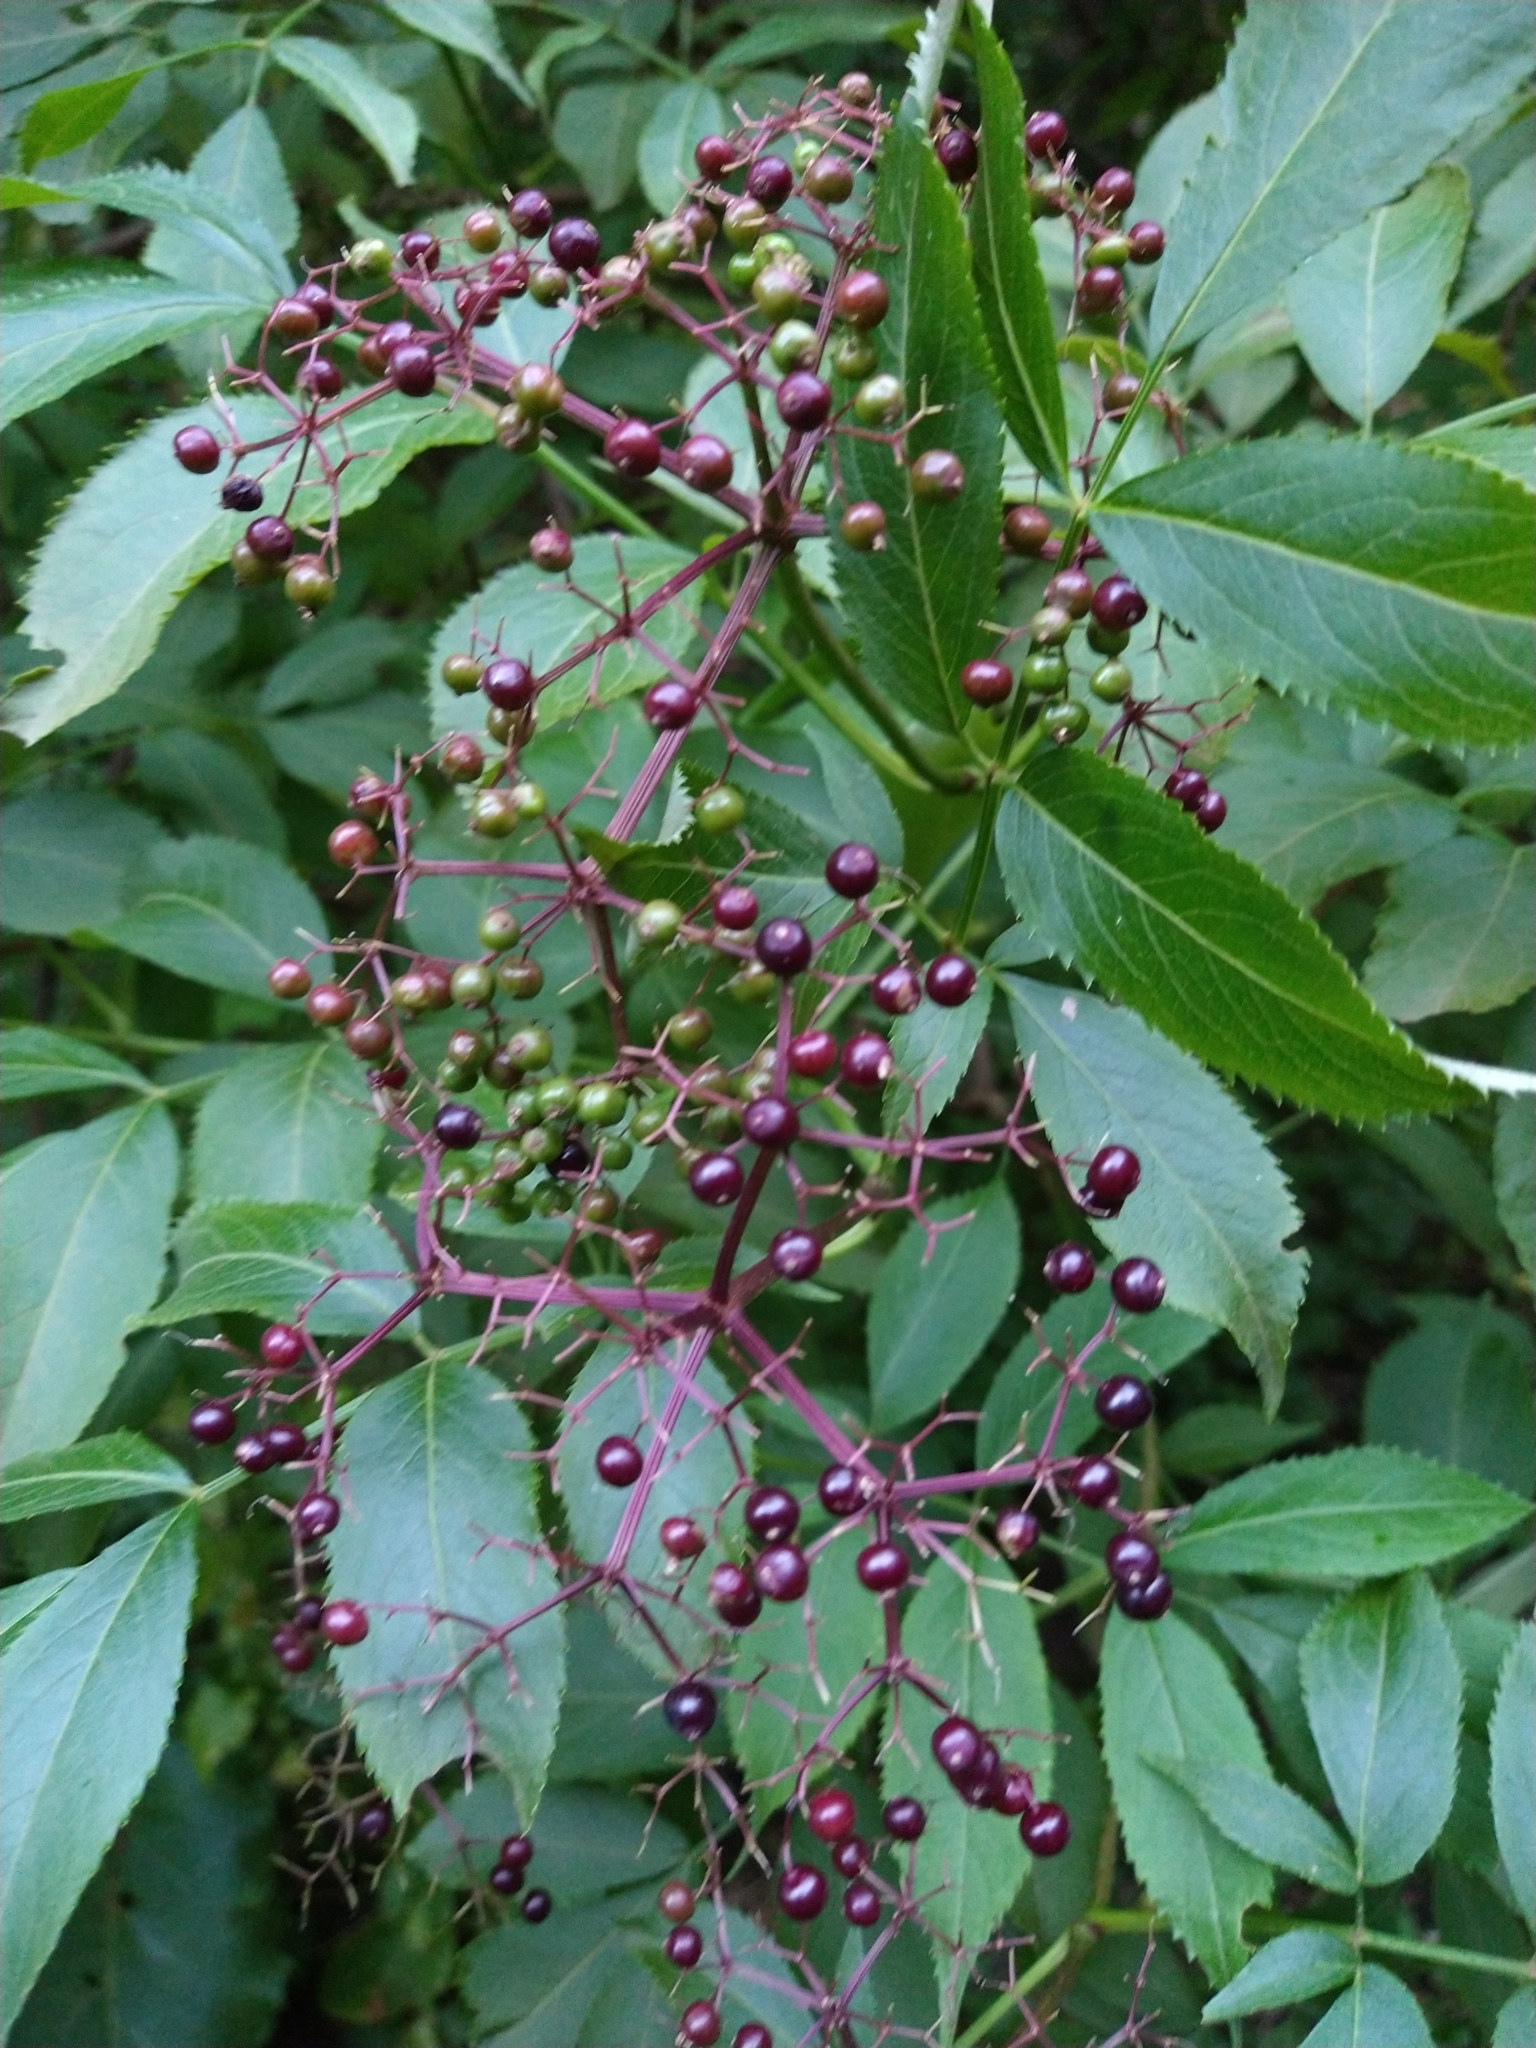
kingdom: Plantae
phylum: Tracheophyta
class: Magnoliopsida
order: Dipsacales
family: Viburnaceae
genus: Sambucus
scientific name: Sambucus canadensis
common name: American elder
